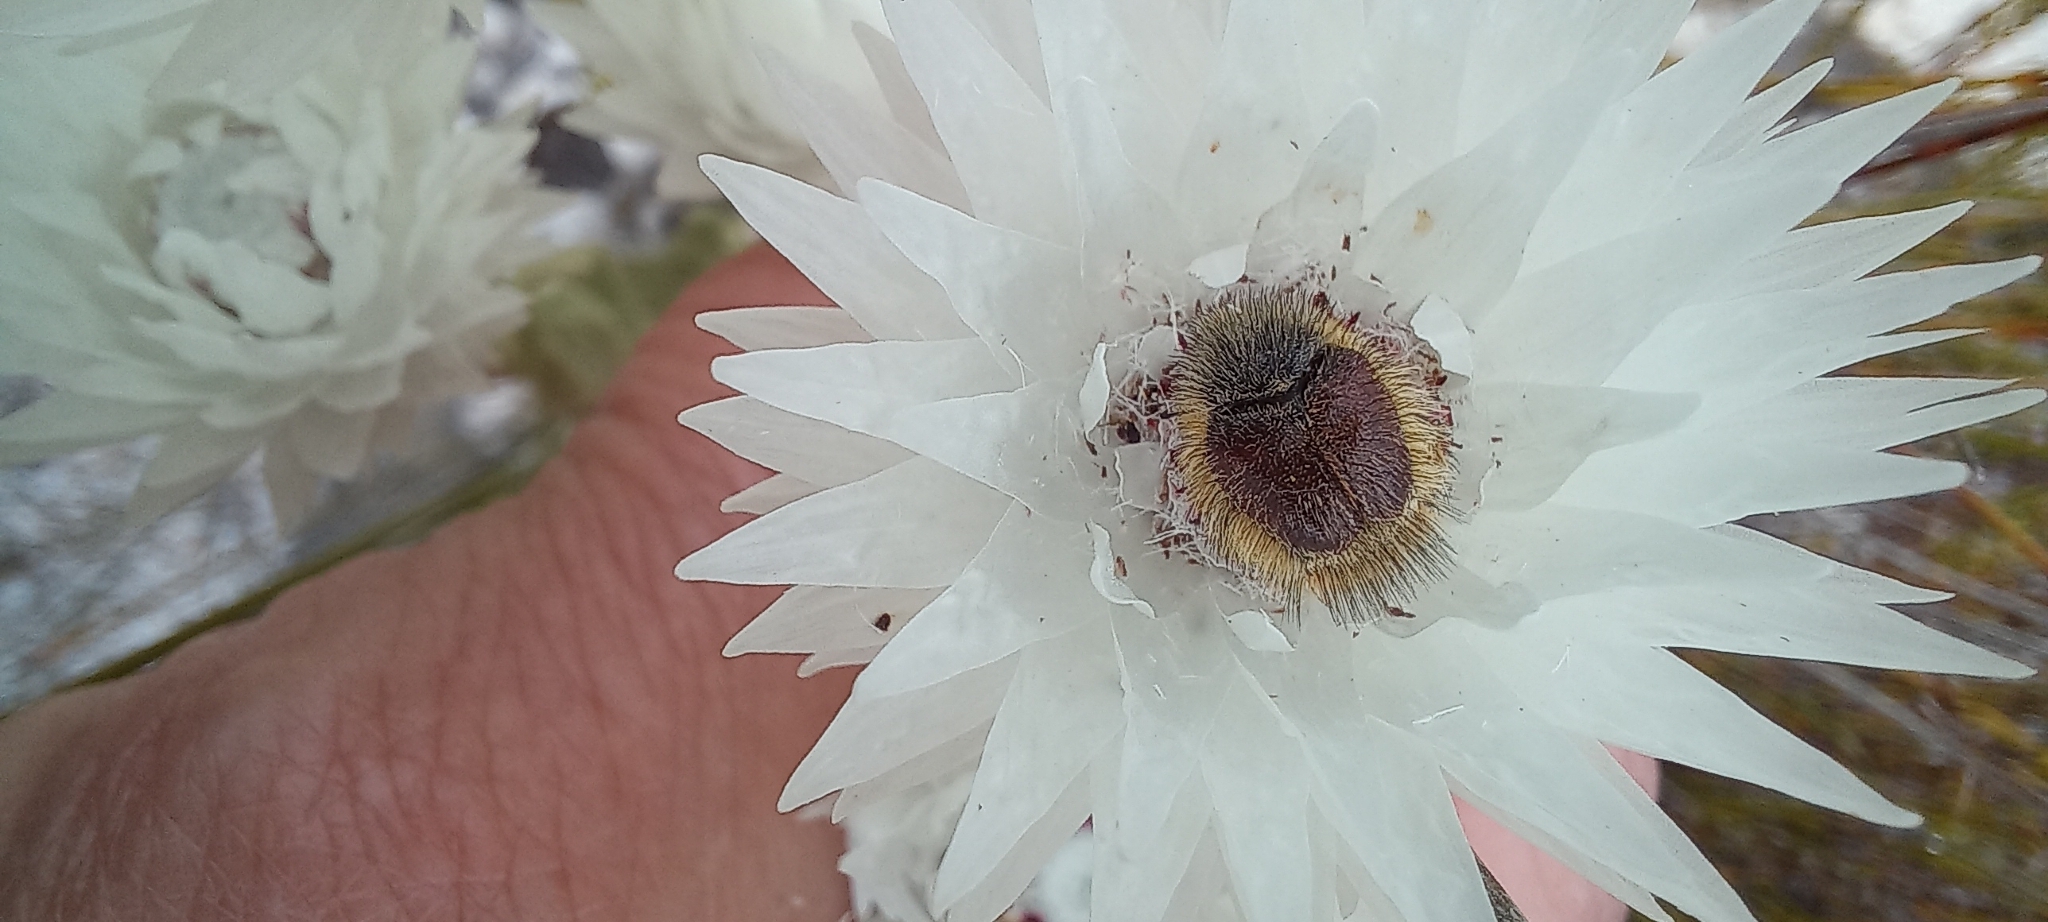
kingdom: Plantae
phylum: Tracheophyta
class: Magnoliopsida
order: Asterales
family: Asteraceae
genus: Syncarpha
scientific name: Syncarpha vestita
